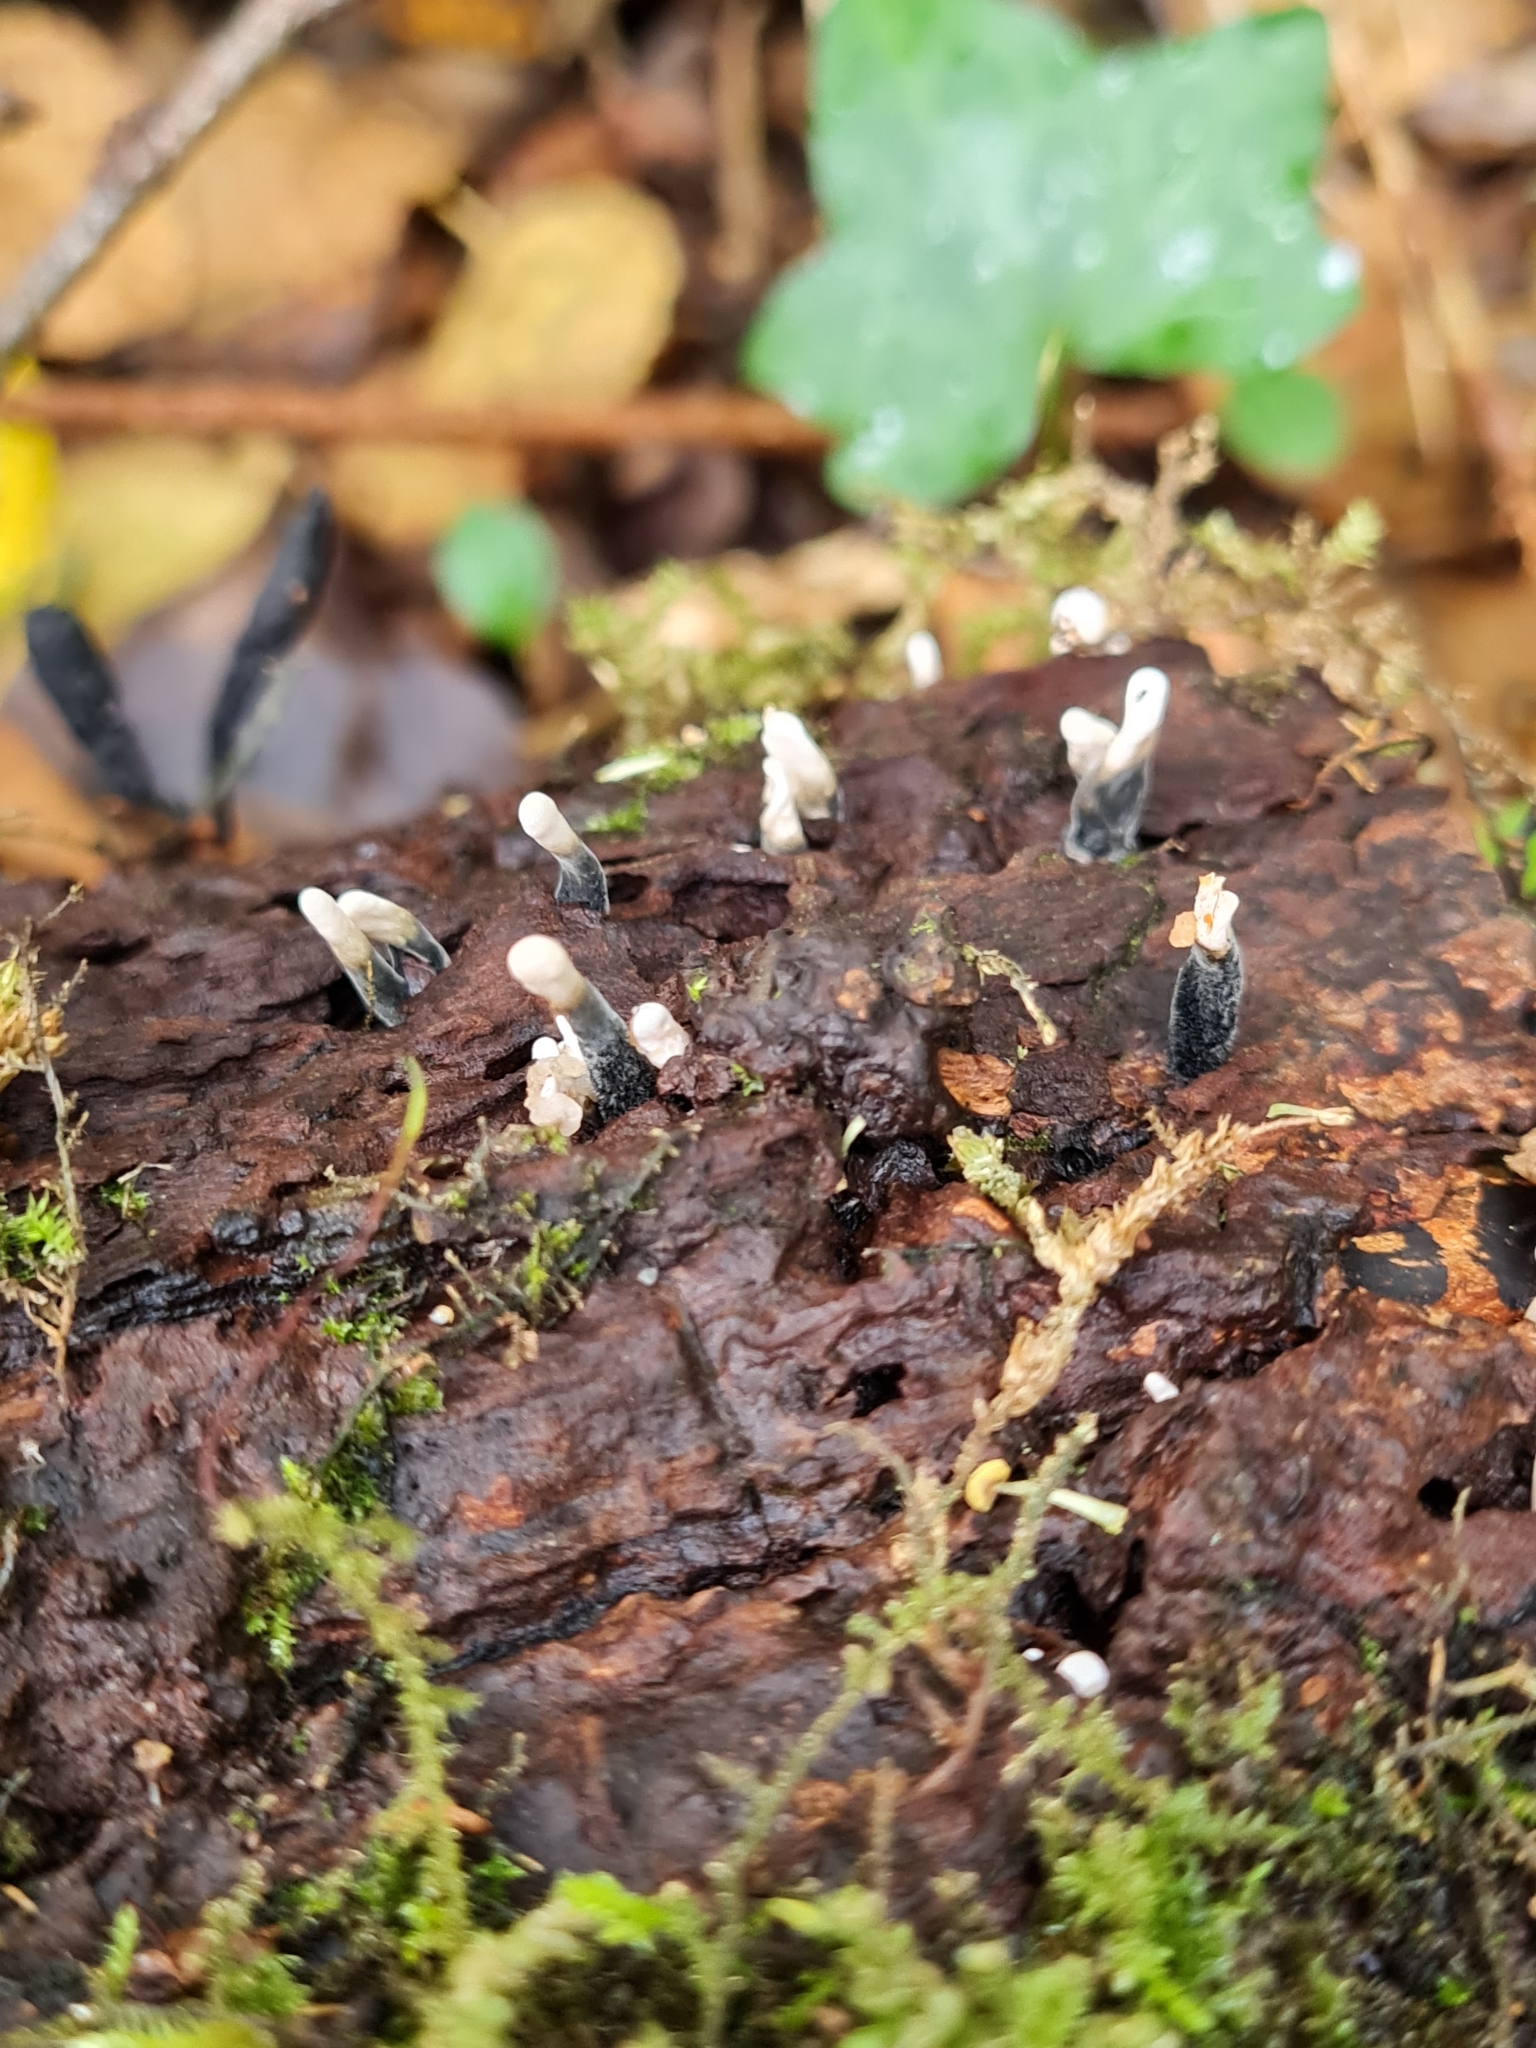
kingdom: Fungi
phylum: Ascomycota
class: Sordariomycetes
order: Xylariales
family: Xylariaceae
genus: Xylaria
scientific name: Xylaria hypoxylon
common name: Candle-snuff fungus
